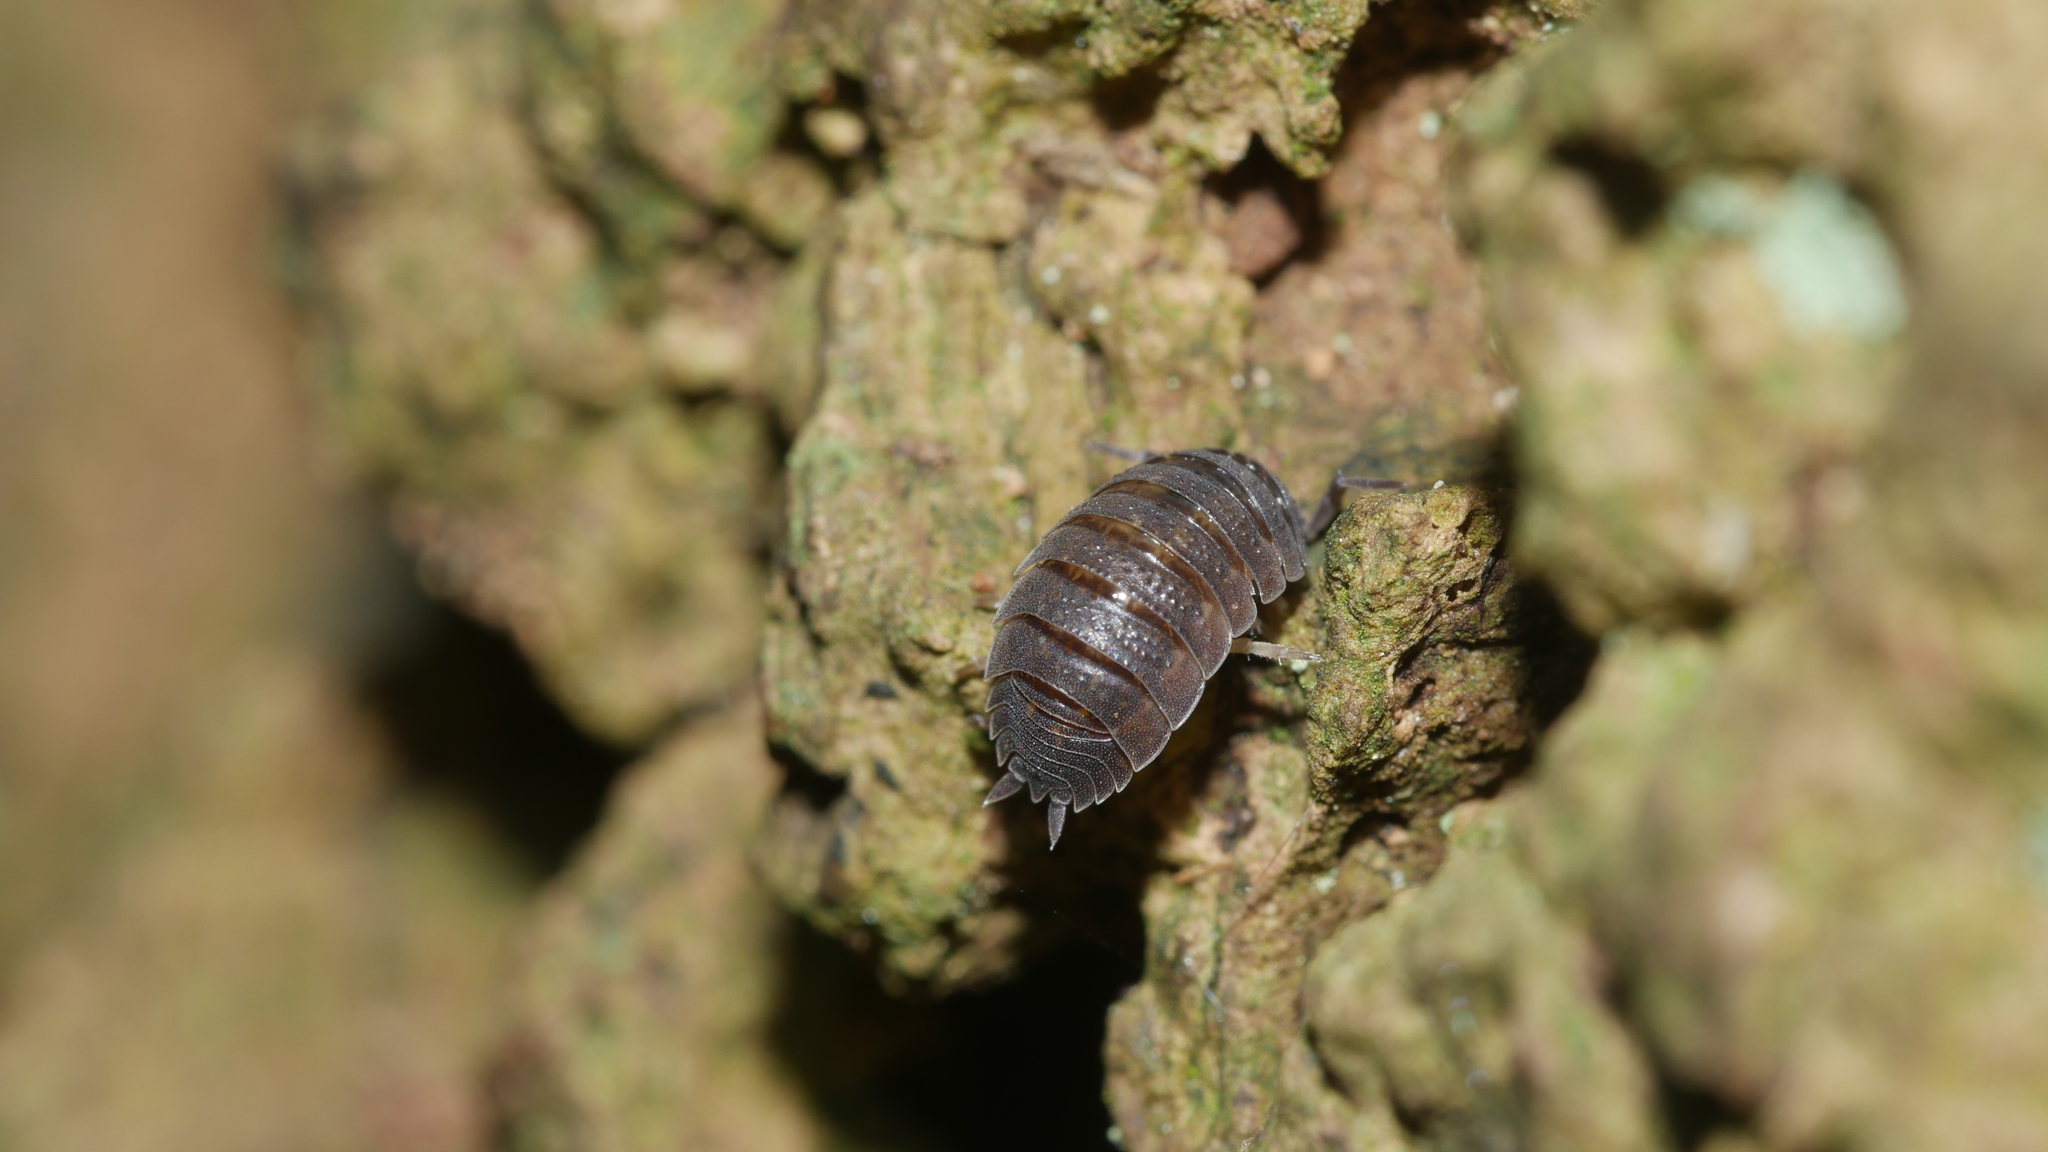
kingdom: Animalia
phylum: Arthropoda
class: Malacostraca
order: Isopoda
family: Porcellionidae
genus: Porcellio
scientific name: Porcellio scaber
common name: Common rough woodlouse
